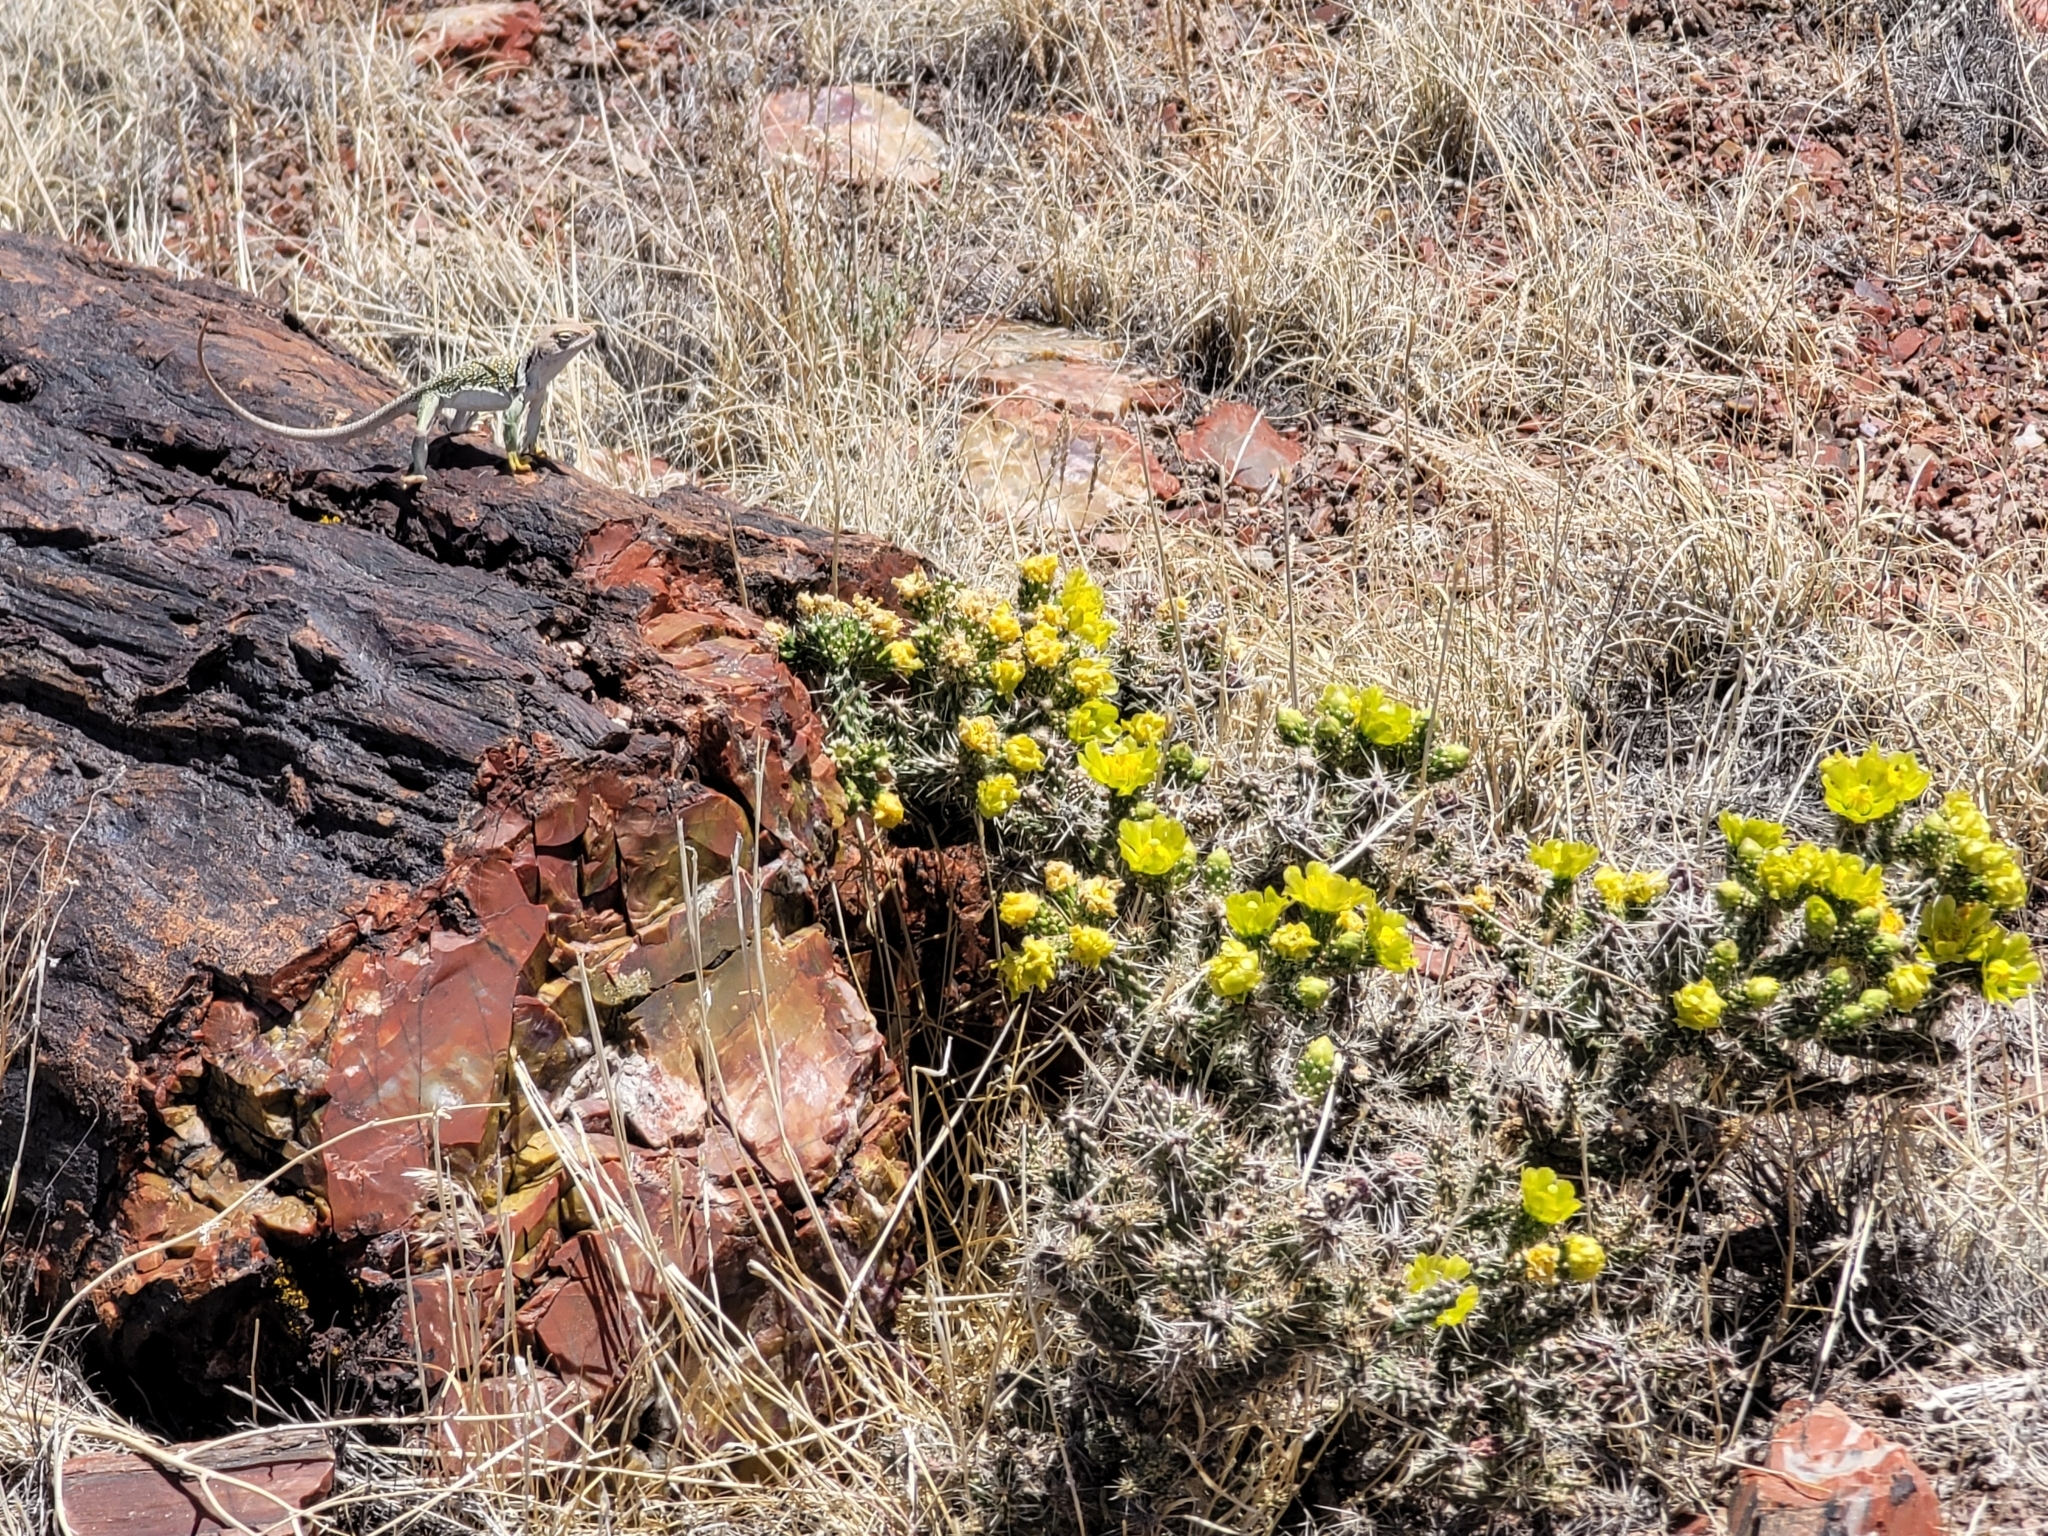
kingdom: Plantae
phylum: Tracheophyta
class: Magnoliopsida
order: Caryophyllales
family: Cactaceae
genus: Cylindropuntia
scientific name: Cylindropuntia whipplei
